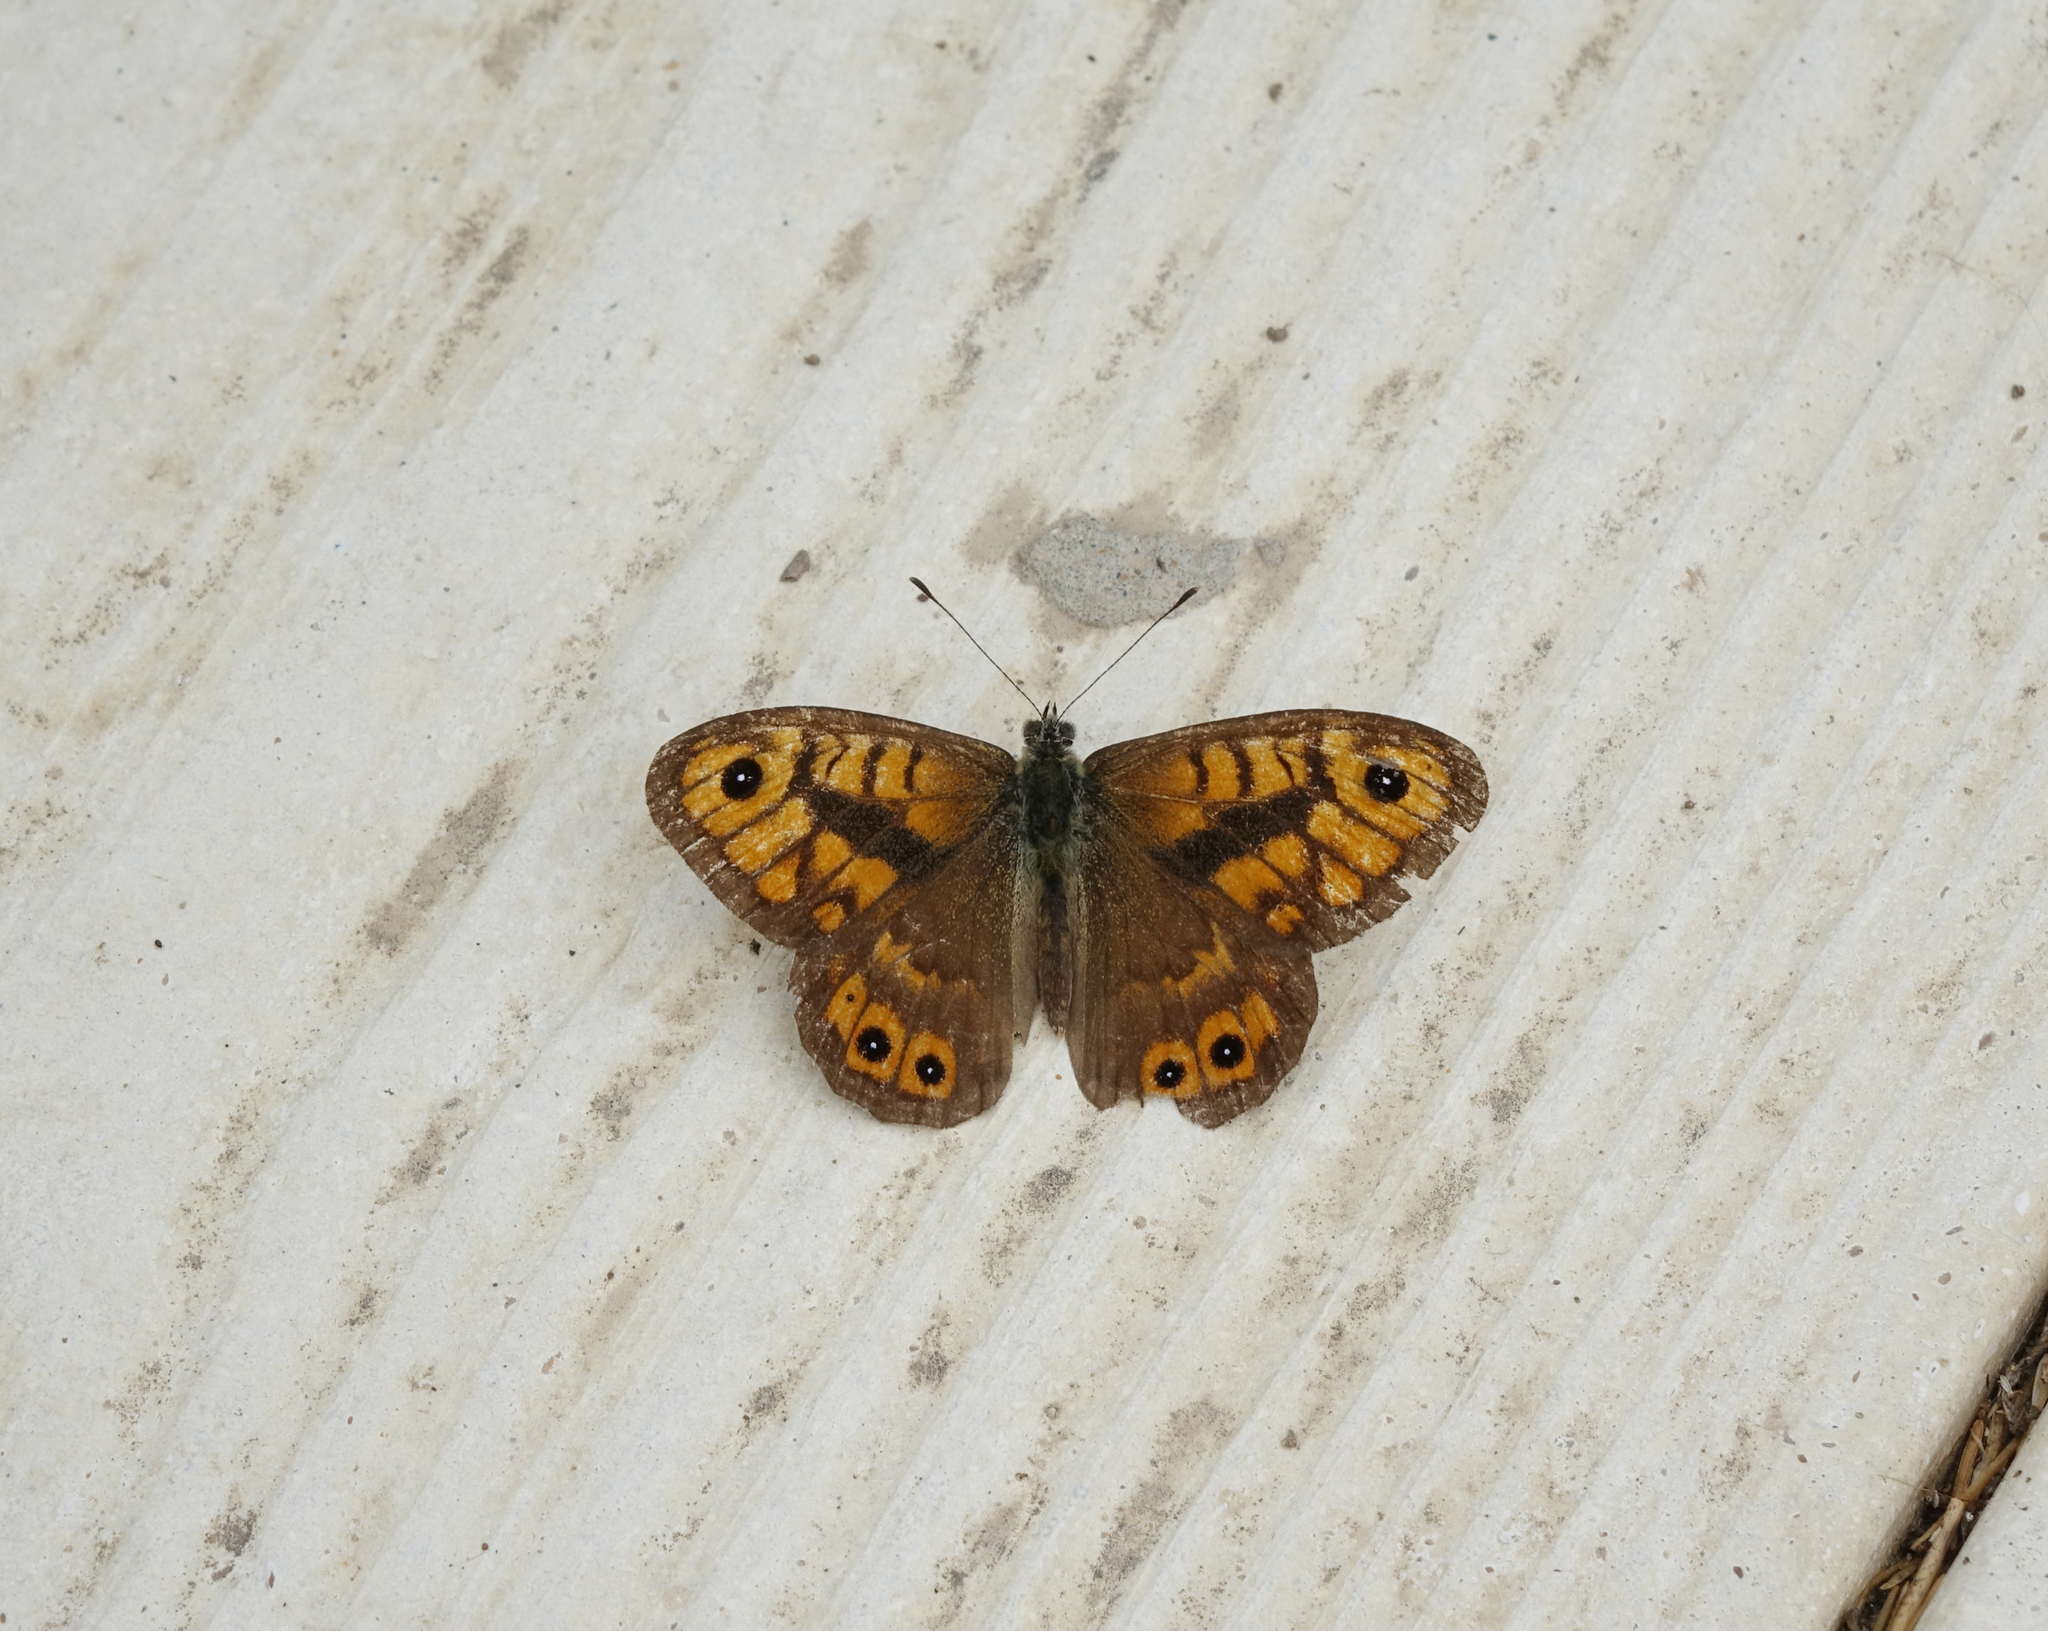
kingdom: Animalia
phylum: Arthropoda
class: Insecta
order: Lepidoptera
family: Nymphalidae
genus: Pararge
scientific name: Pararge Lasiommata megera
